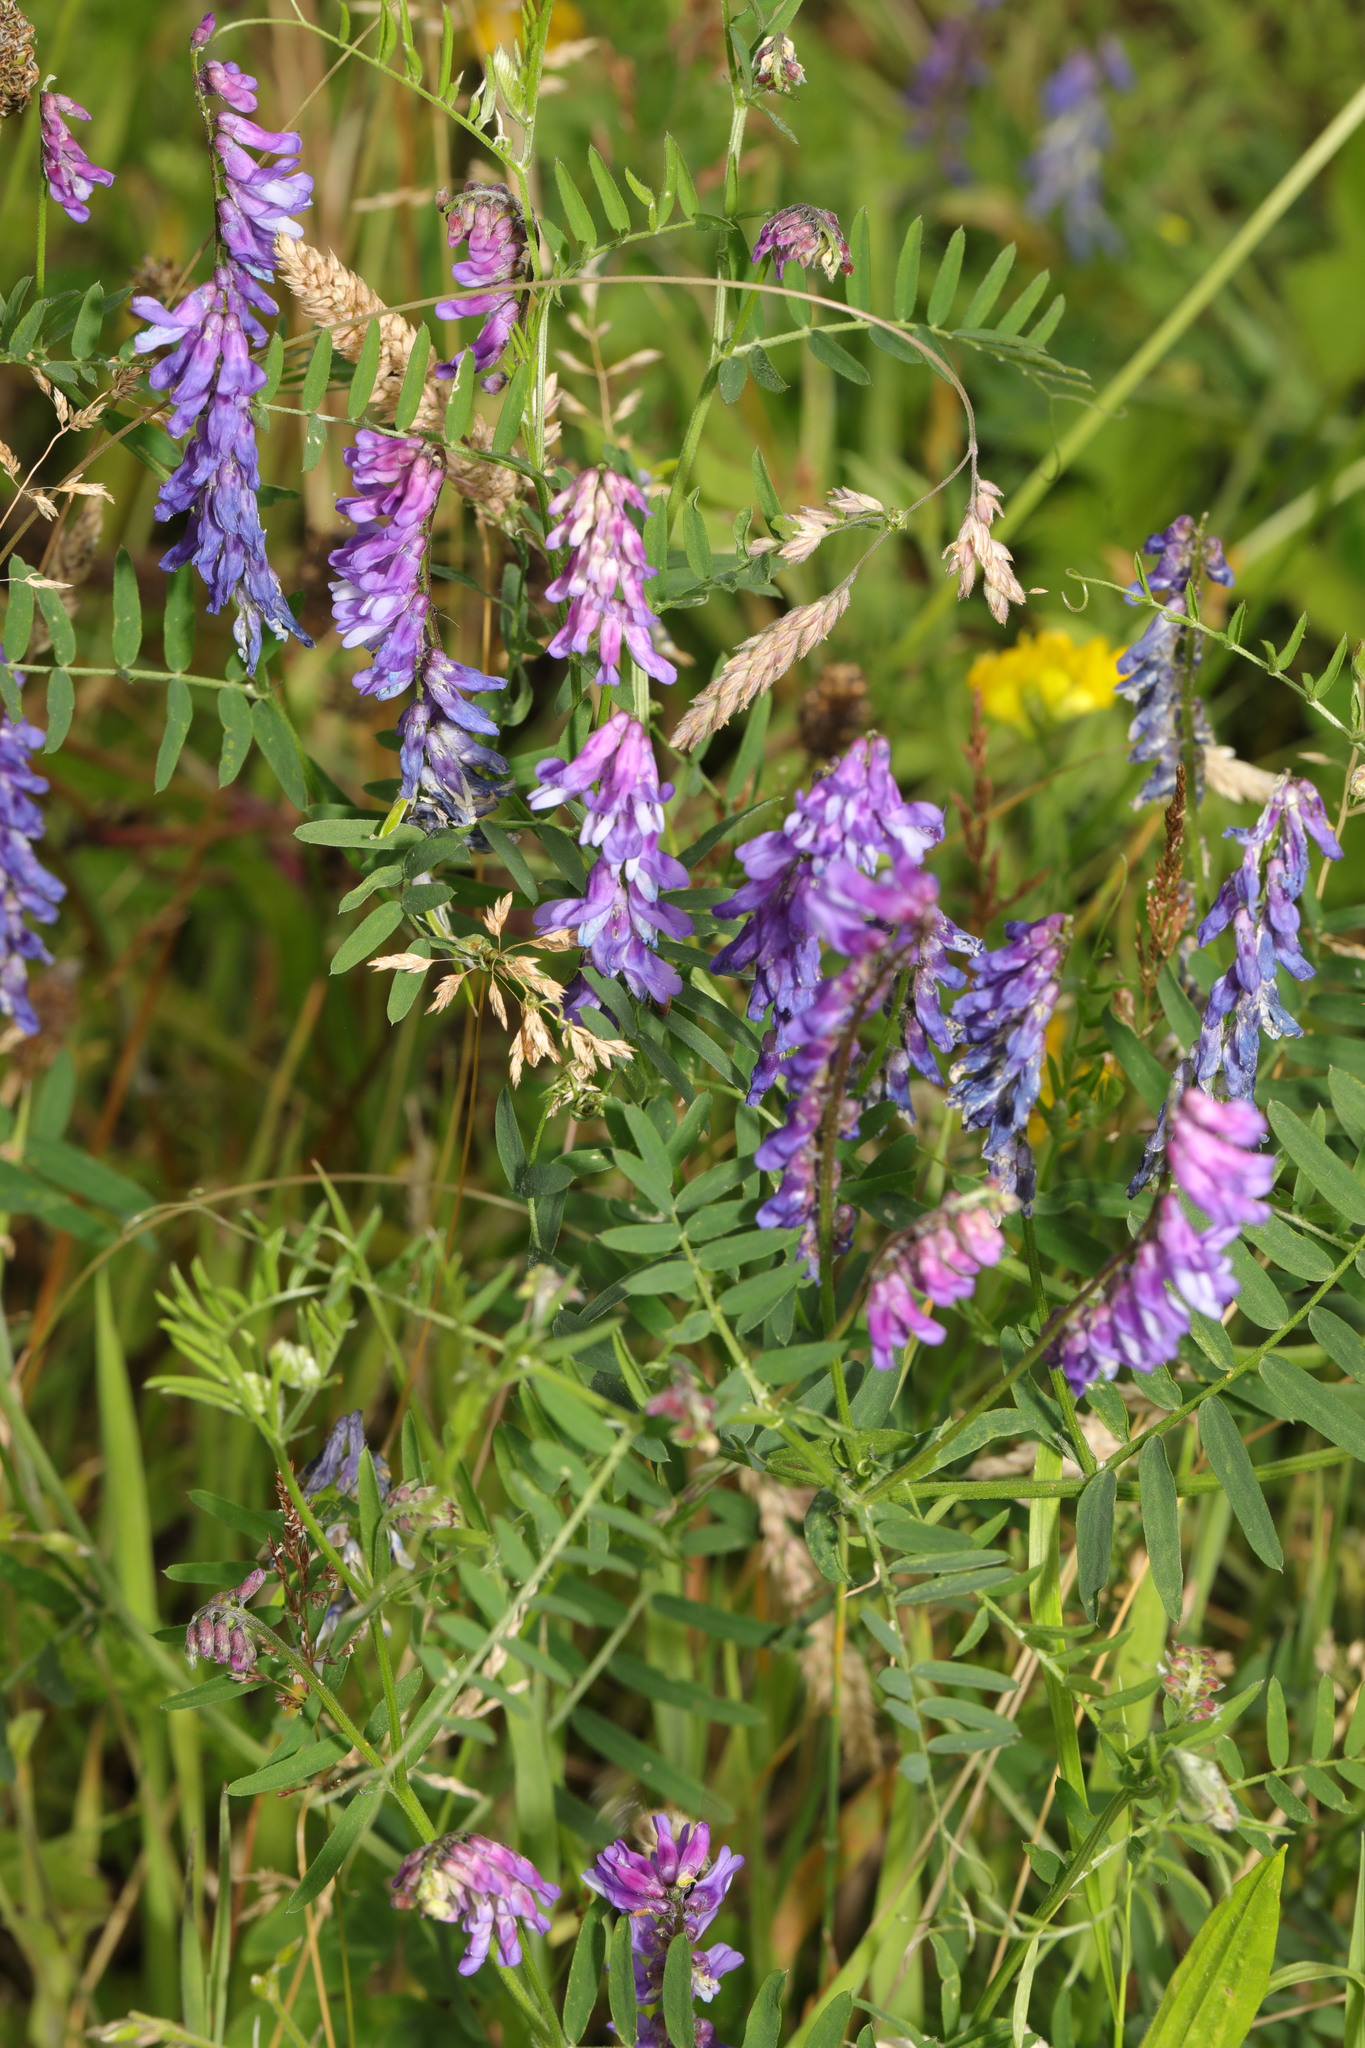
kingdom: Plantae
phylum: Tracheophyta
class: Magnoliopsida
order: Fabales
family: Fabaceae
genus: Vicia
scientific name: Vicia cracca
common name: Bird vetch
